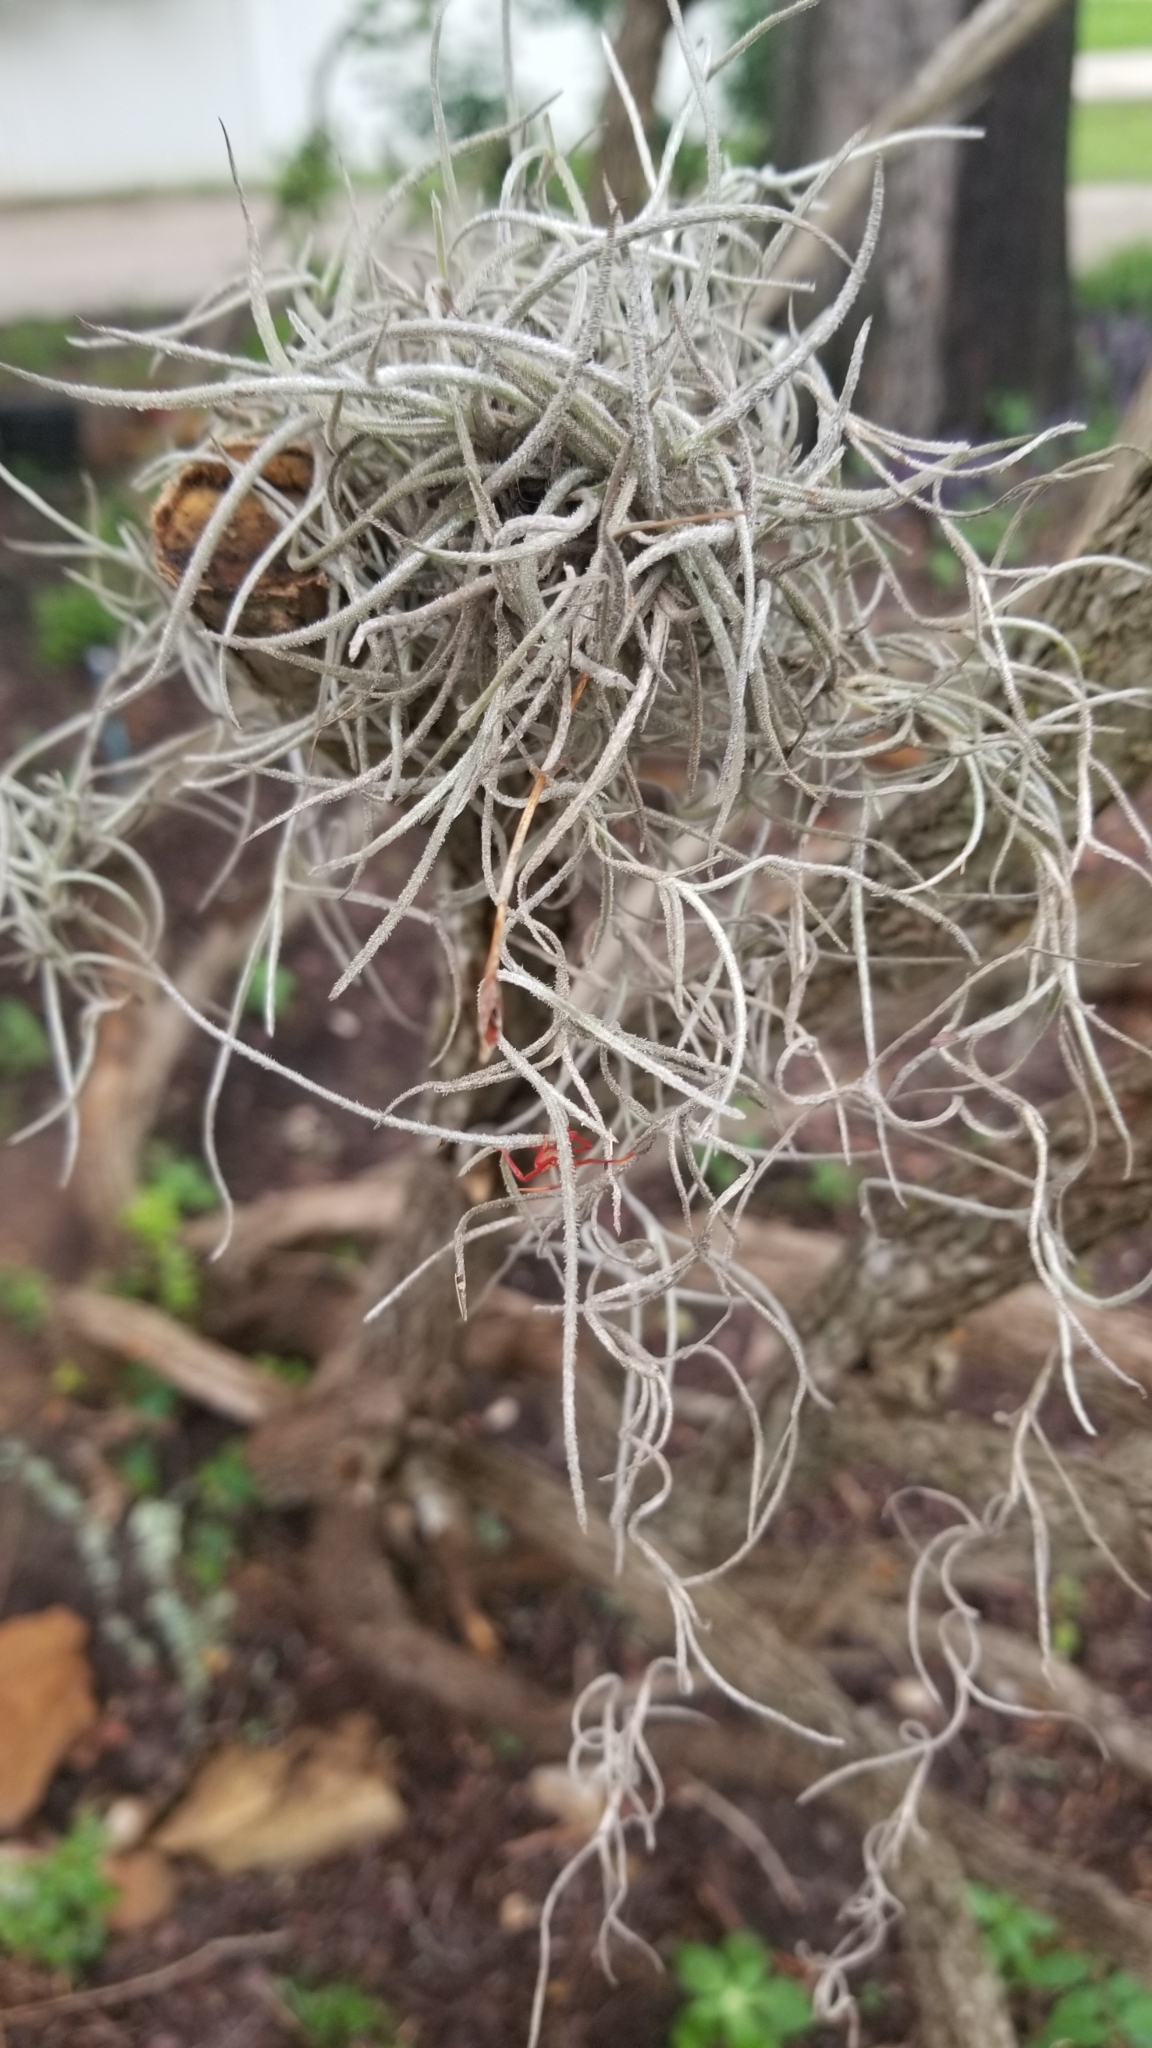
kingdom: Plantae
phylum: Tracheophyta
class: Liliopsida
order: Poales
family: Bromeliaceae
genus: Tillandsia
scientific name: Tillandsia usneoides
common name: Spanish moss
